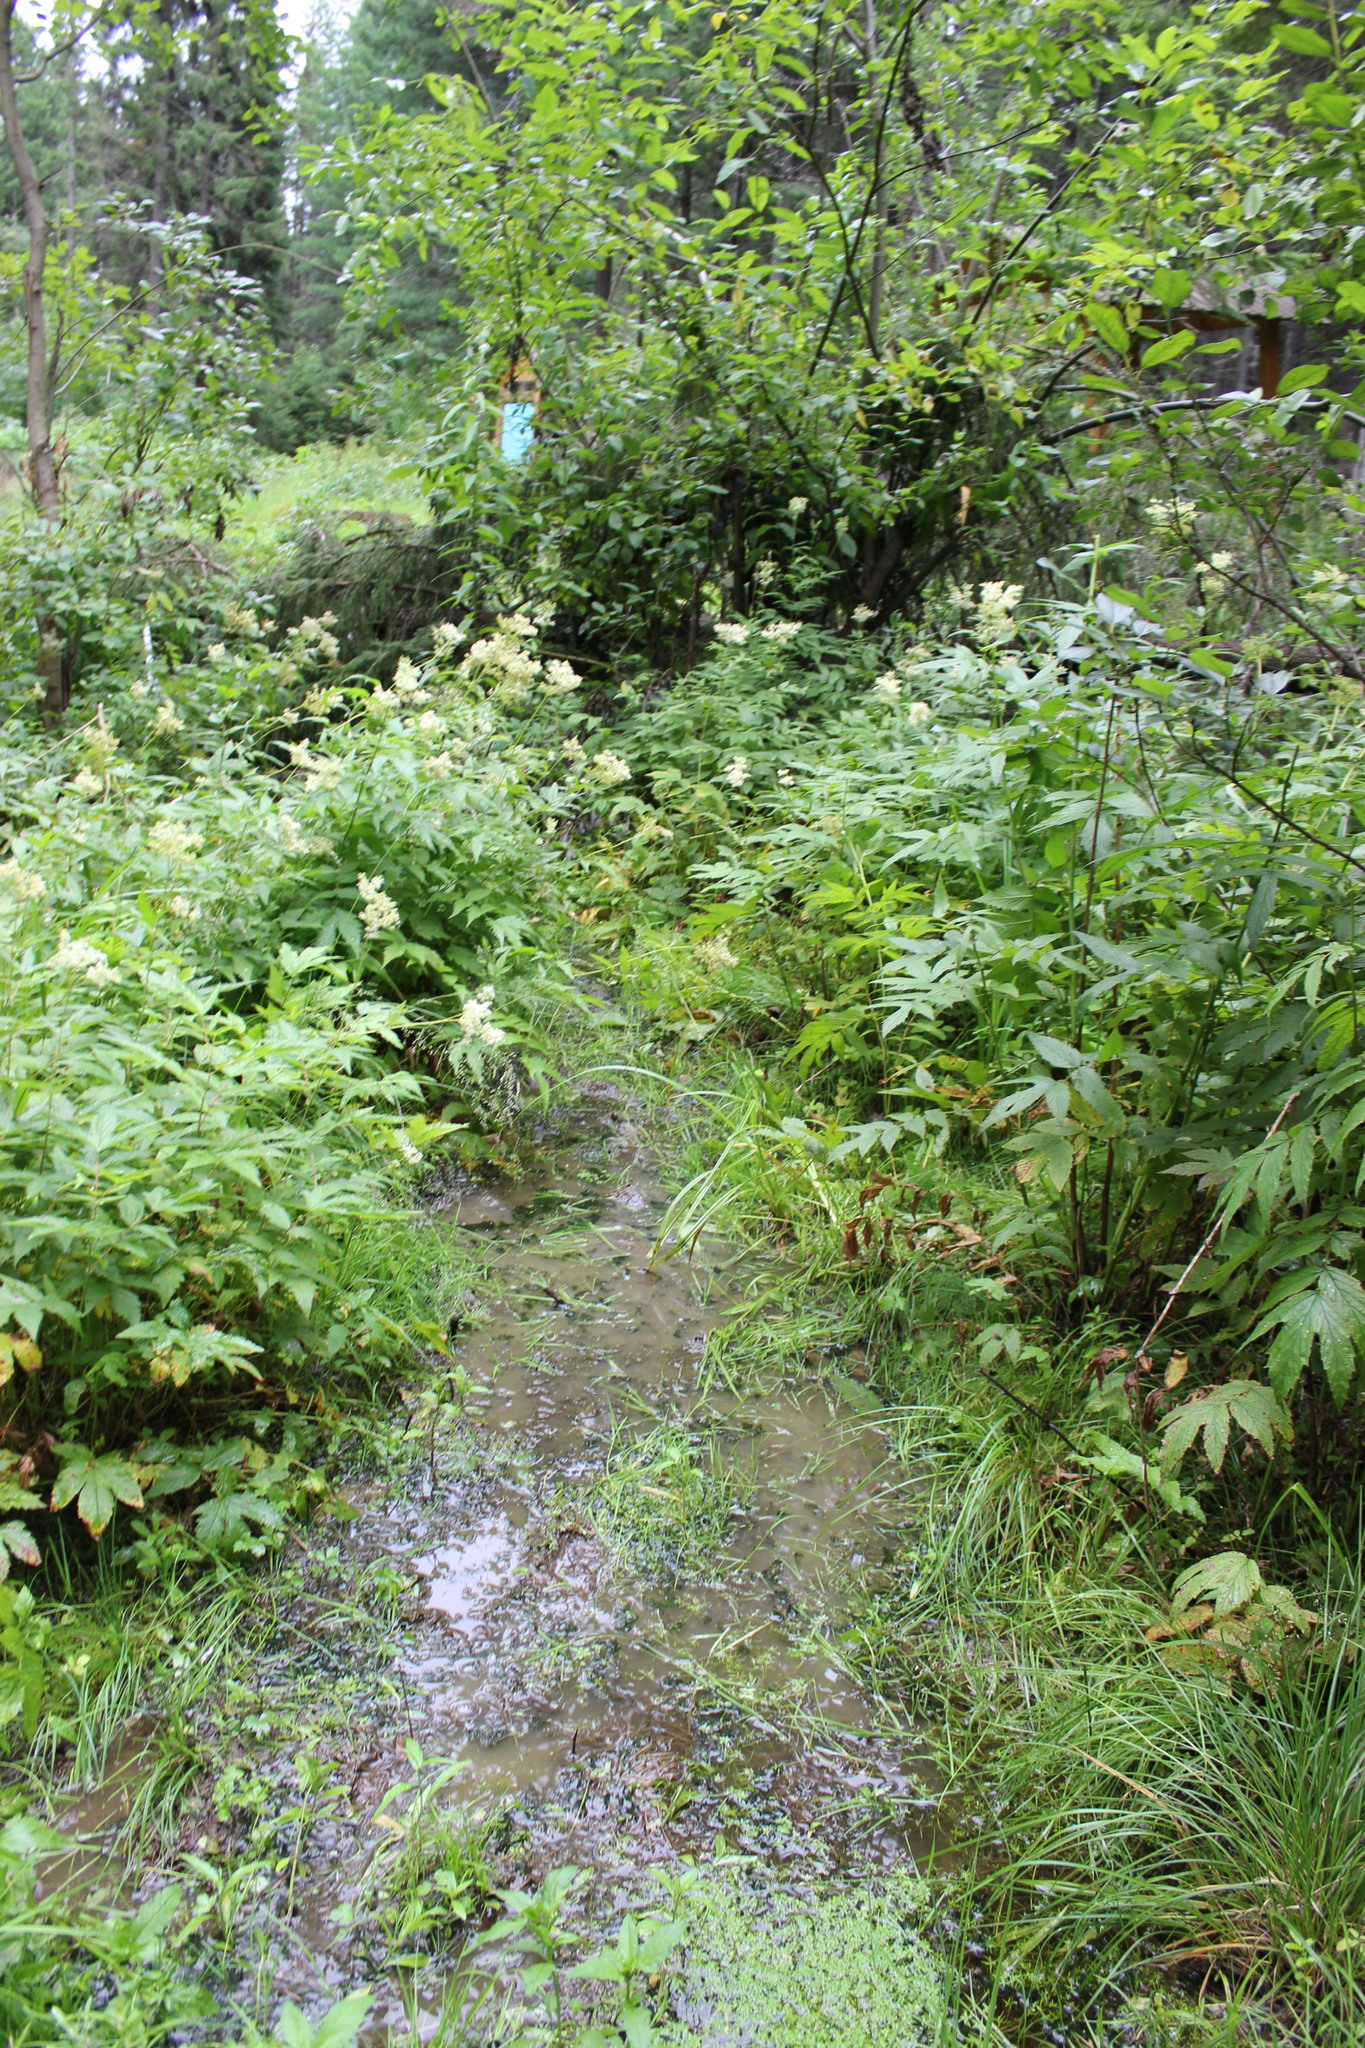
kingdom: Plantae
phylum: Tracheophyta
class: Magnoliopsida
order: Rosales
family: Rosaceae
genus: Filipendula
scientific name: Filipendula ulmaria
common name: Meadowsweet
